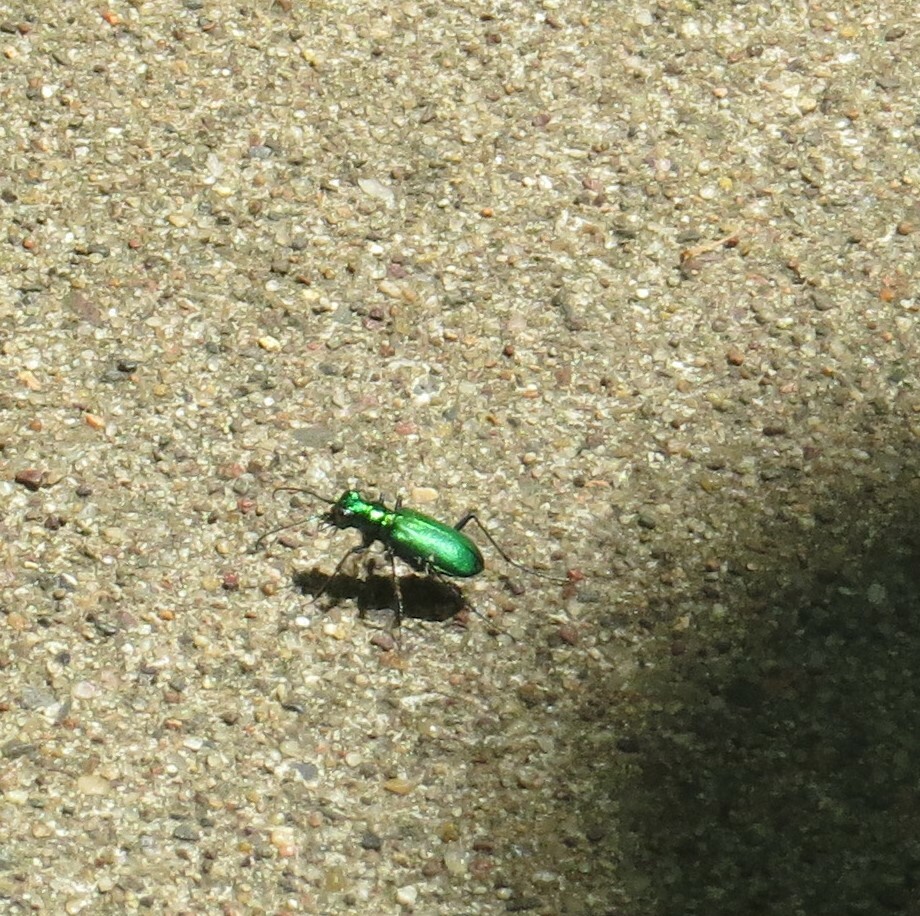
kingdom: Animalia
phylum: Arthropoda
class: Insecta
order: Coleoptera
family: Carabidae
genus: Cicindela
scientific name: Cicindela sexguttata
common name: Six-spotted tiger beetle
